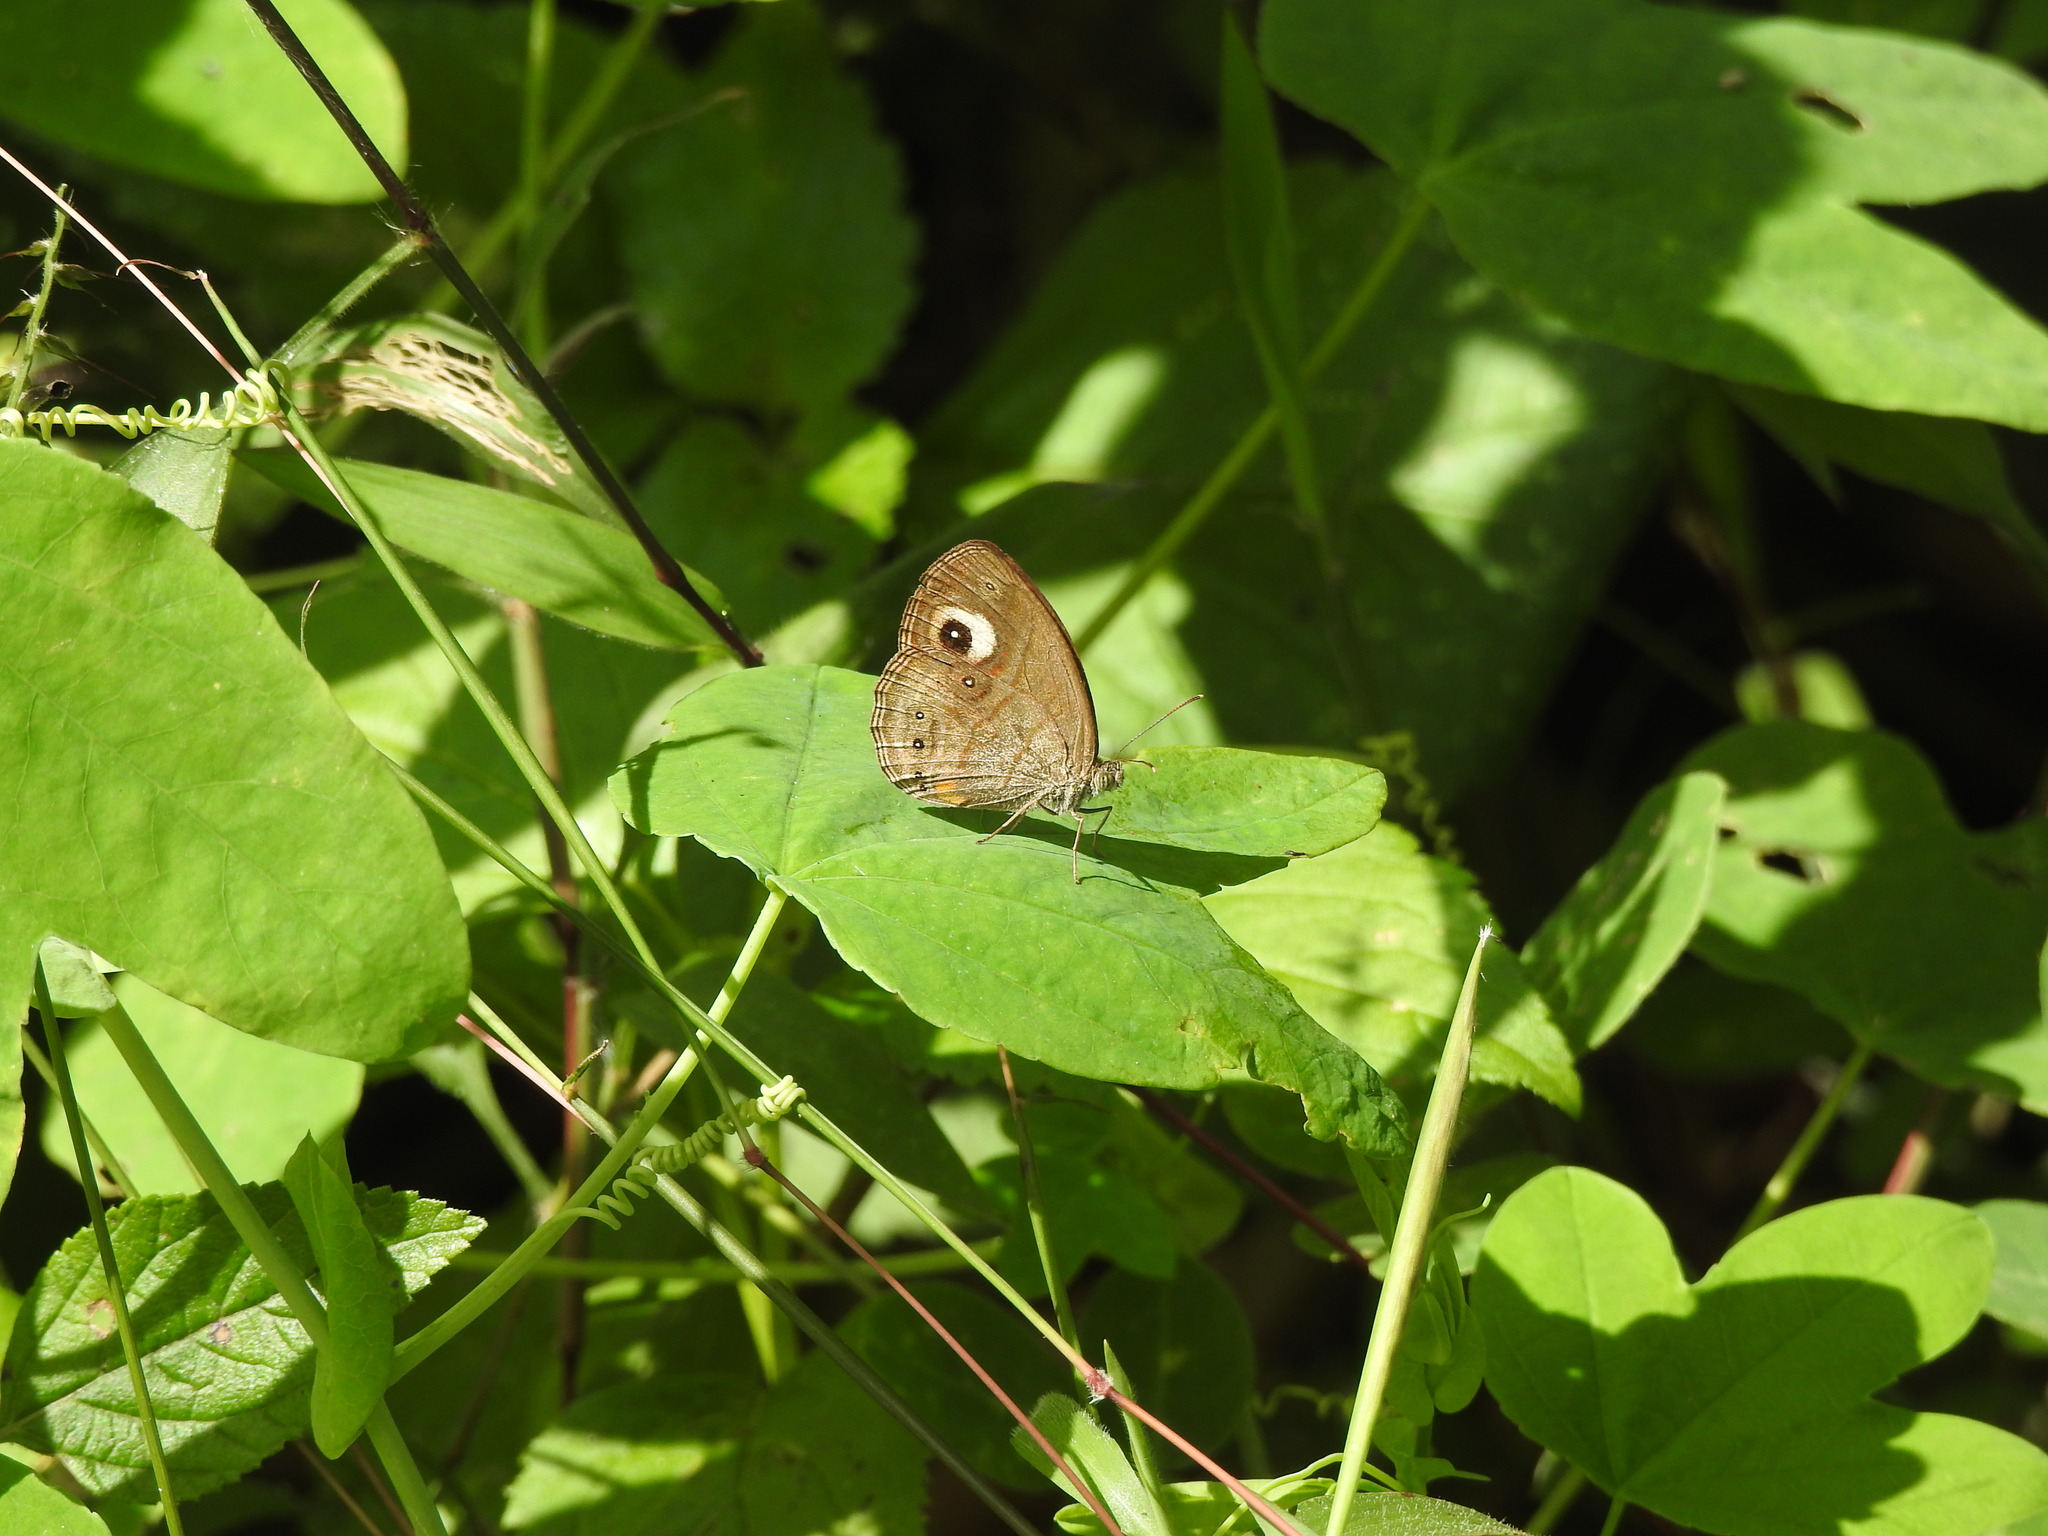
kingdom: Animalia
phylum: Arthropoda
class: Insecta
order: Lepidoptera
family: Nymphalidae
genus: Mycalesis
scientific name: Mycalesis patnia
